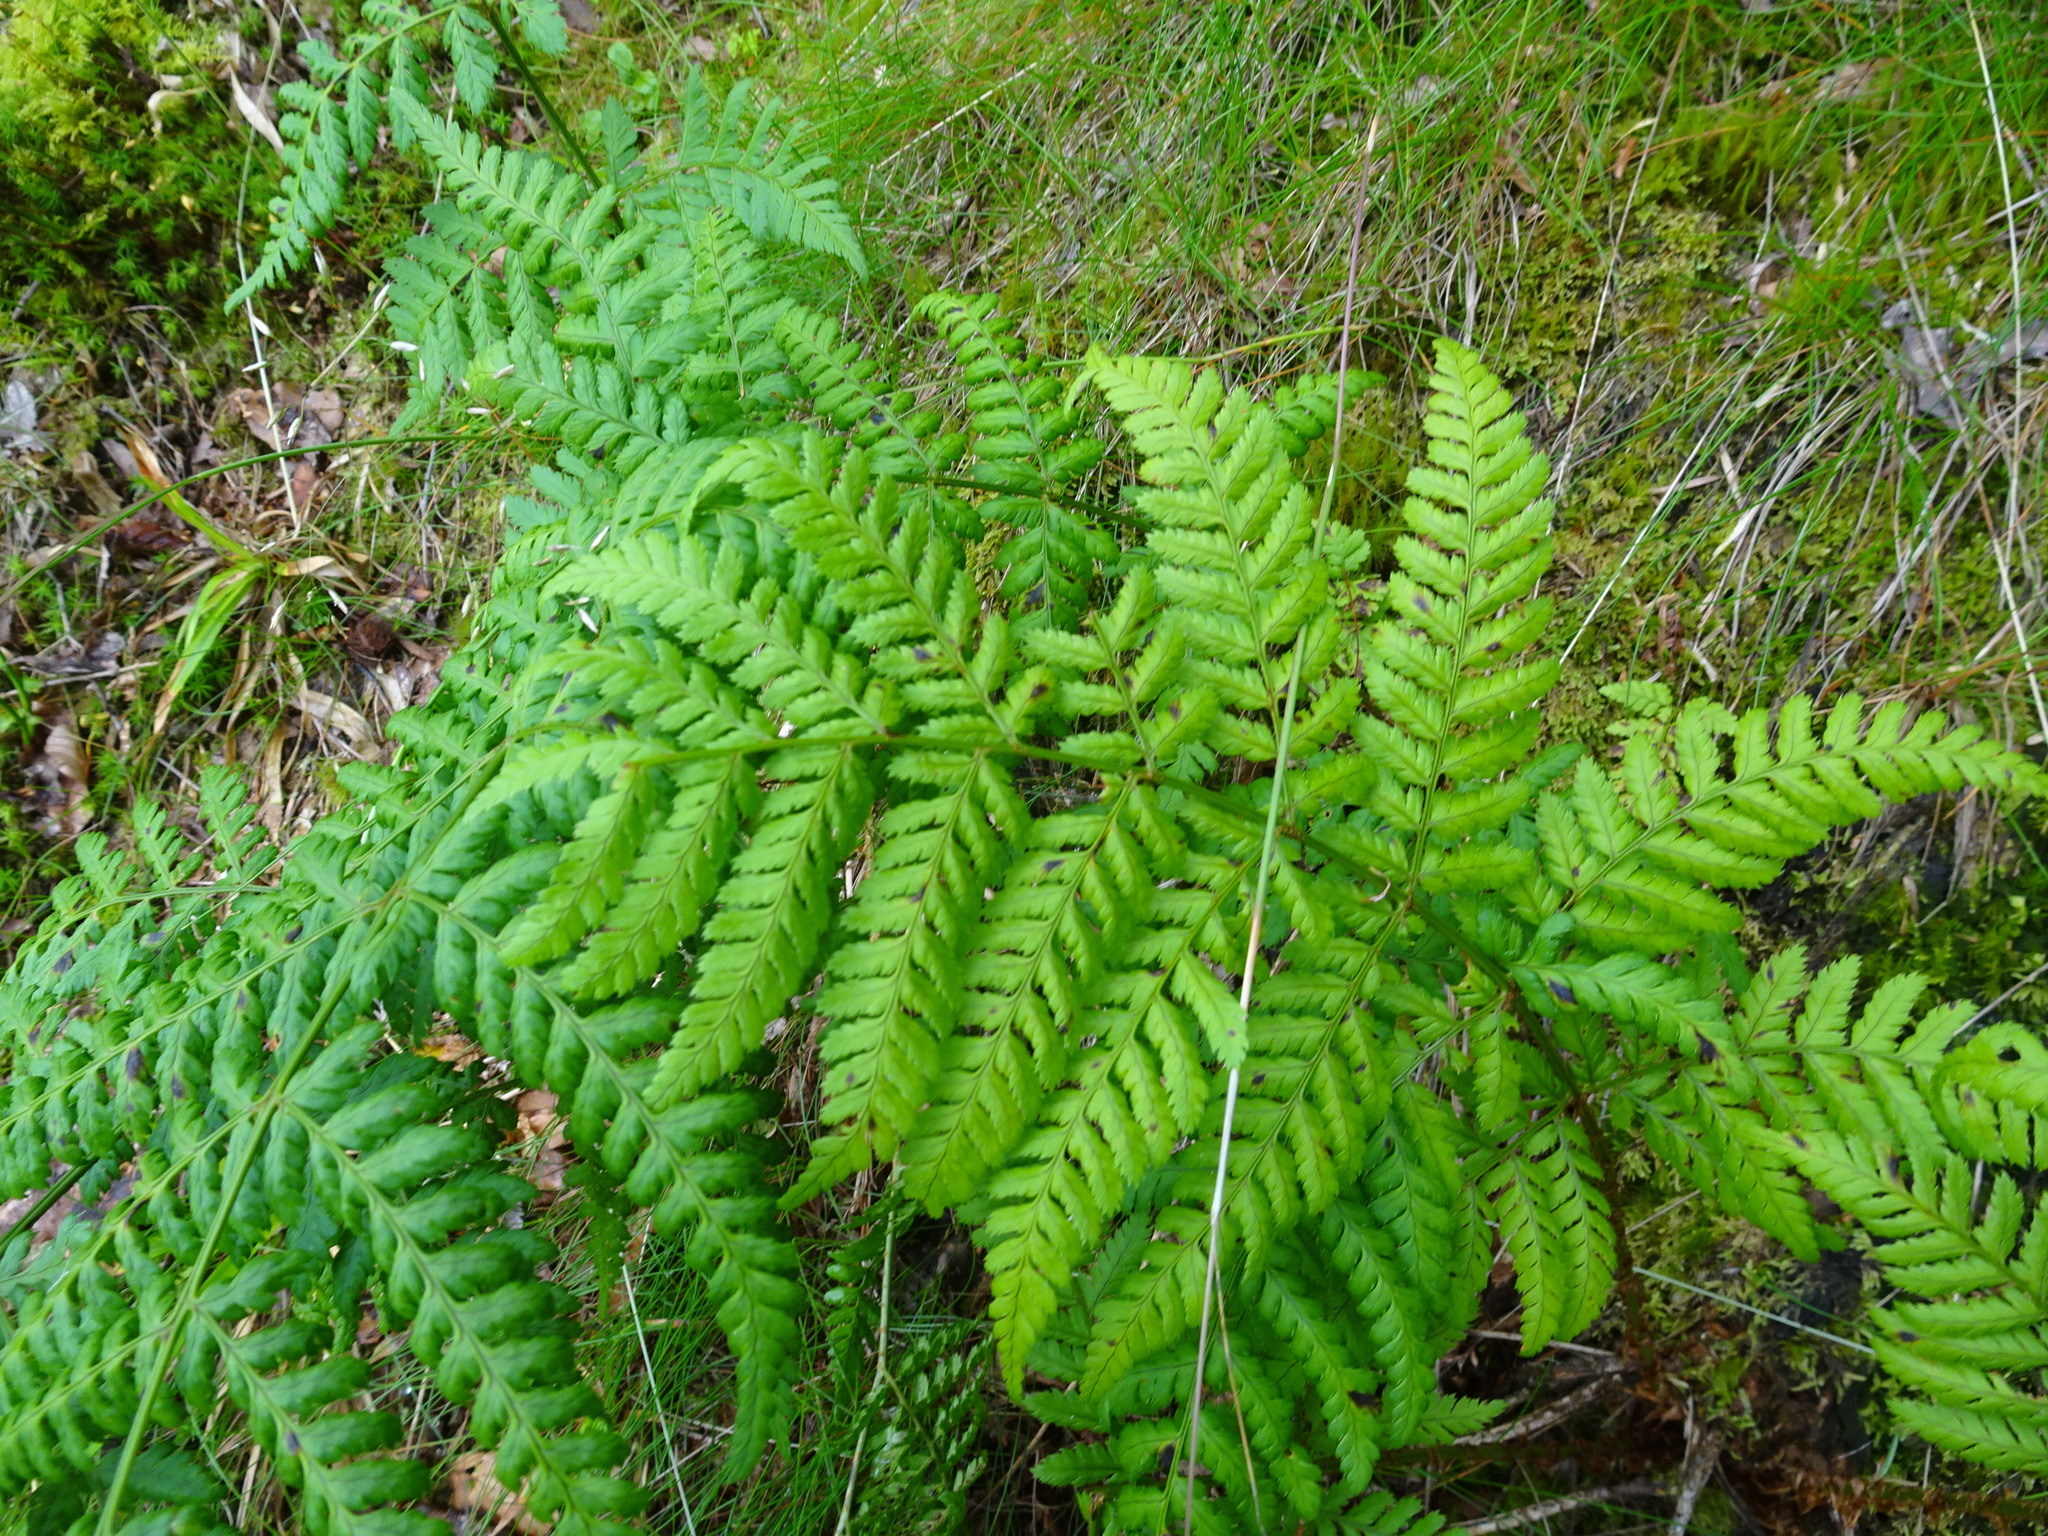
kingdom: Plantae
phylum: Tracheophyta
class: Polypodiopsida
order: Polypodiales
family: Dryopteridaceae
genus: Dryopteris
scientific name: Dryopteris dilatata
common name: Broad buckler-fern
